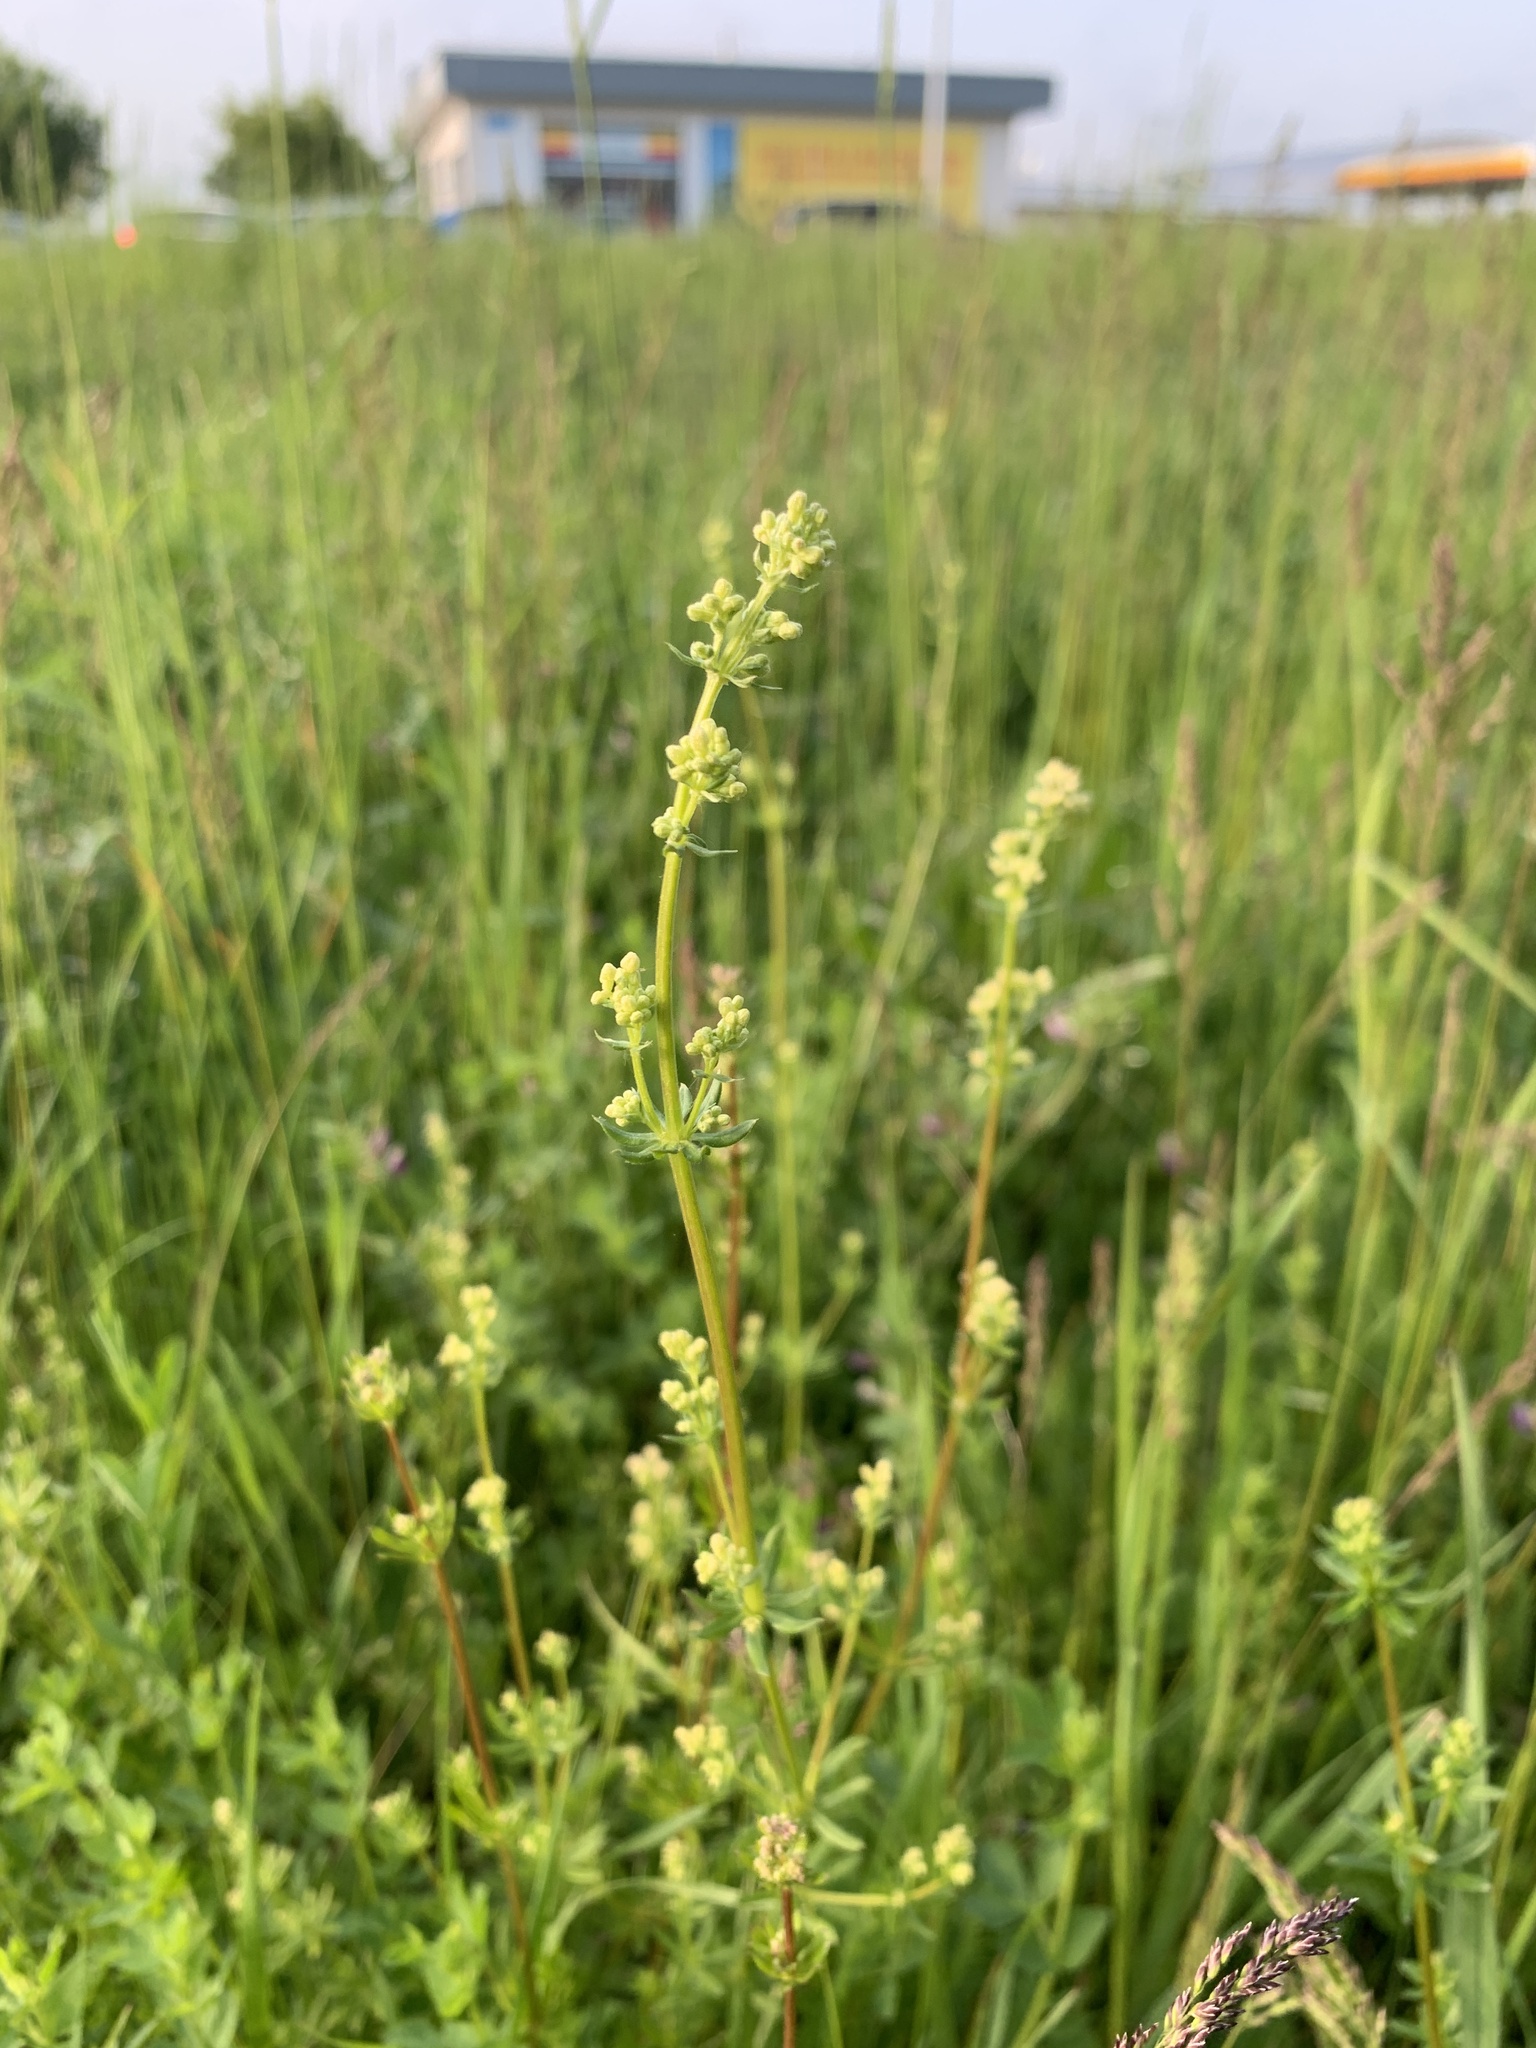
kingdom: Plantae
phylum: Tracheophyta
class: Magnoliopsida
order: Gentianales
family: Rubiaceae
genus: Galium
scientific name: Galium album
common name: White bedstraw
